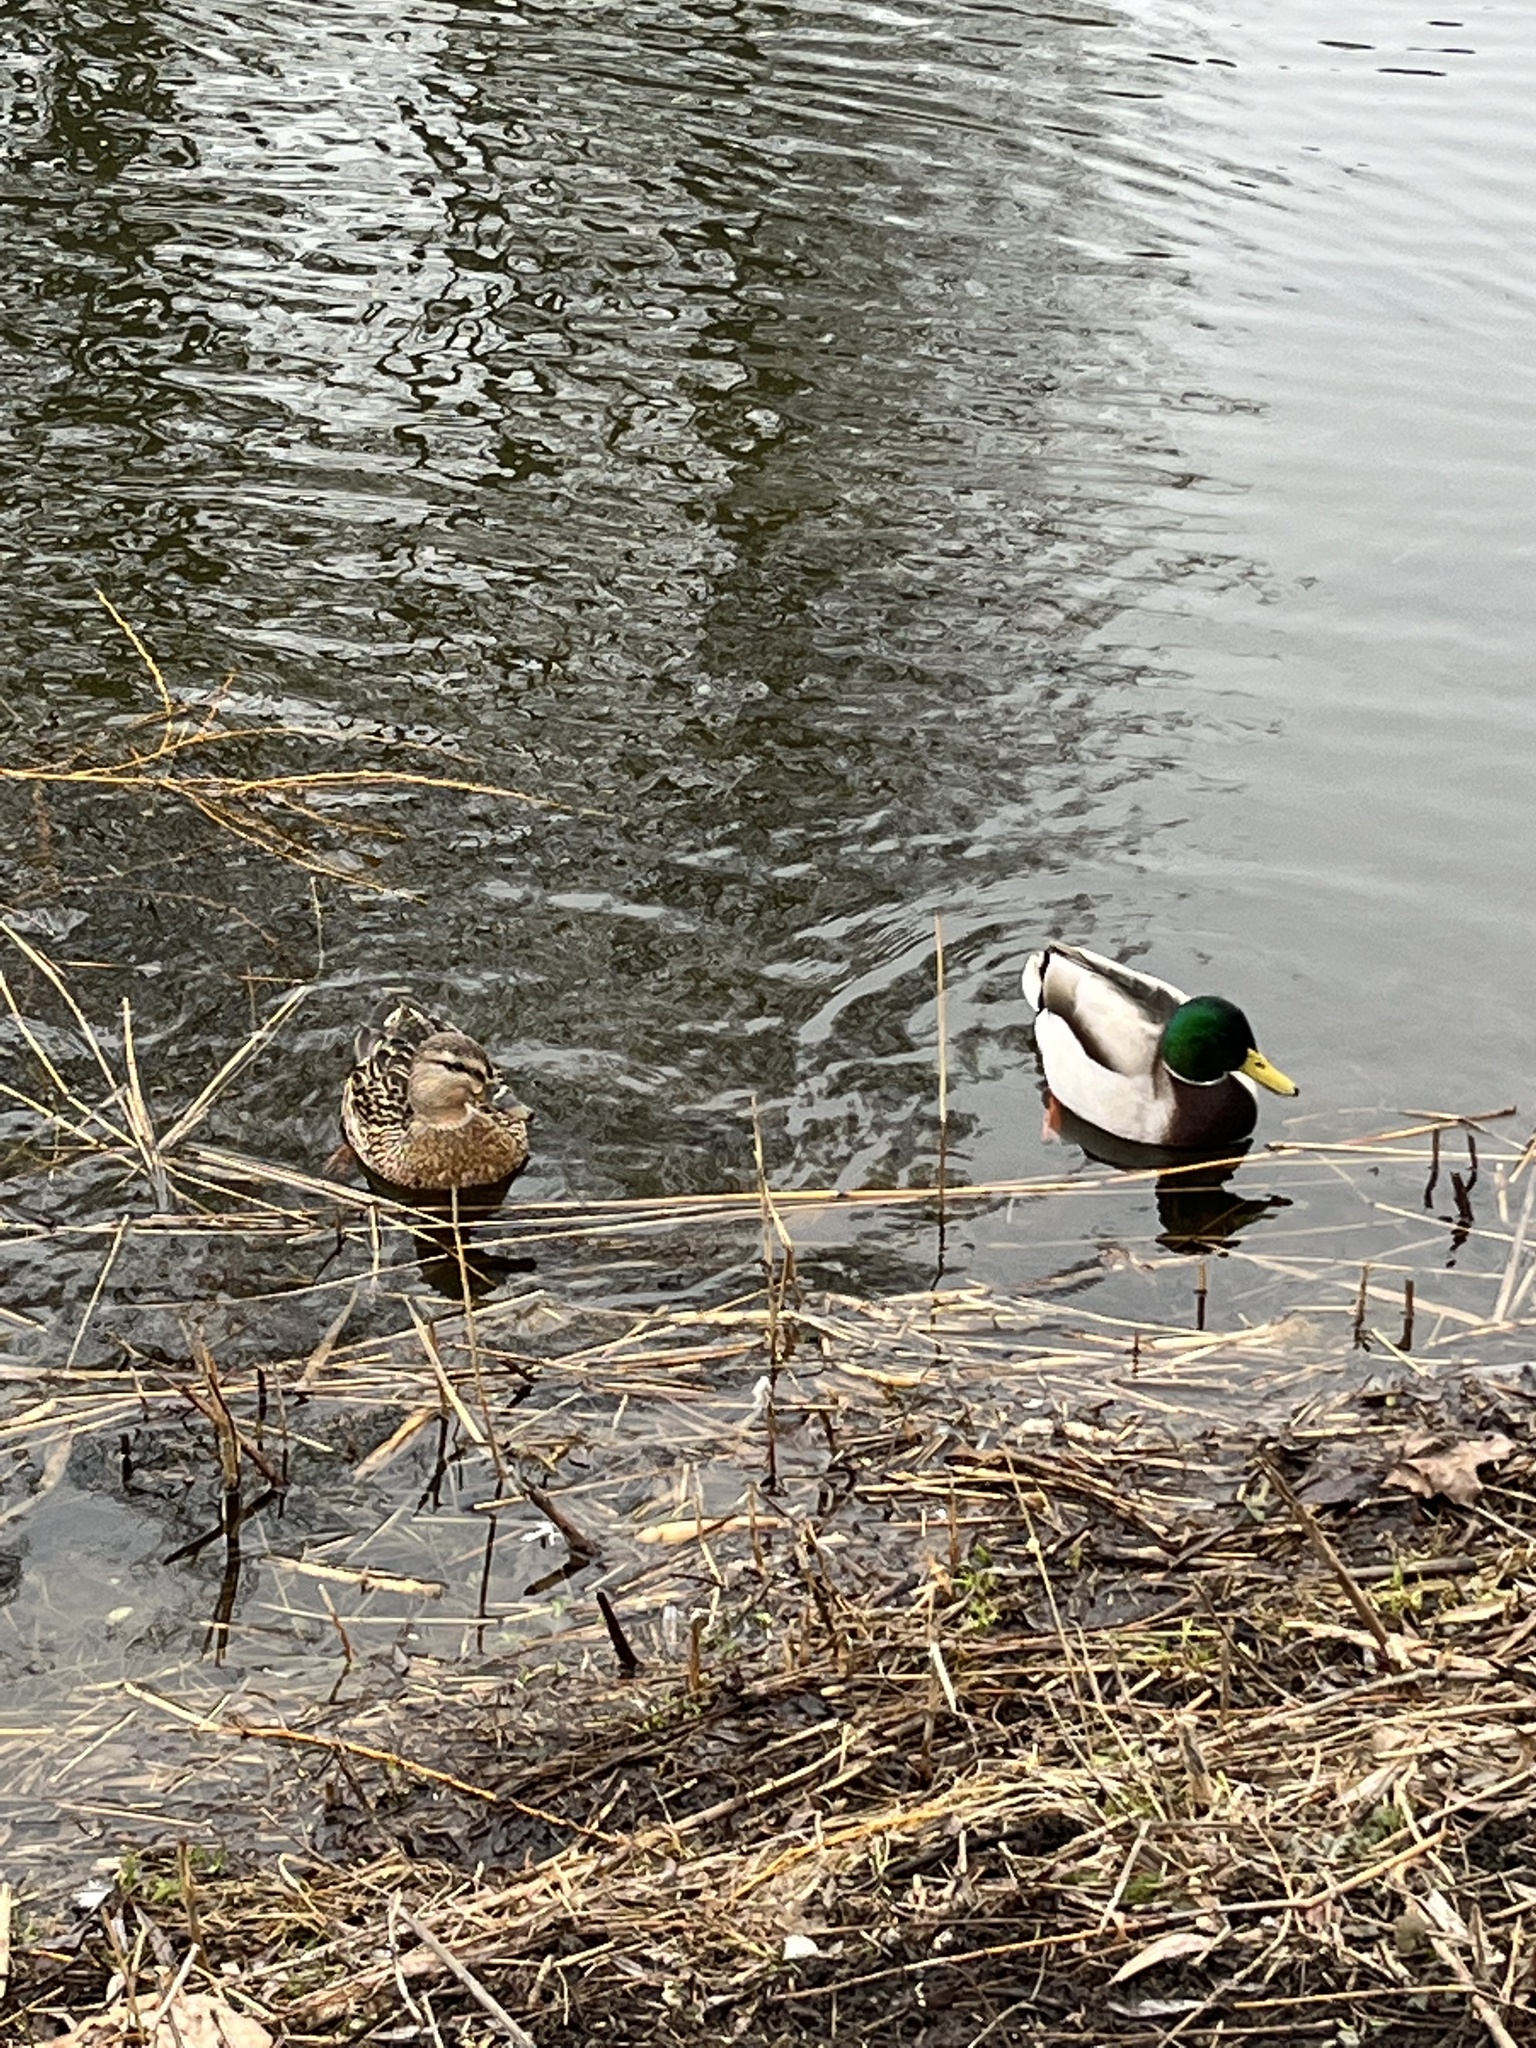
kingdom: Animalia
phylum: Chordata
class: Aves
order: Anseriformes
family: Anatidae
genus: Anas
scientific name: Anas platyrhynchos
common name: Mallard
